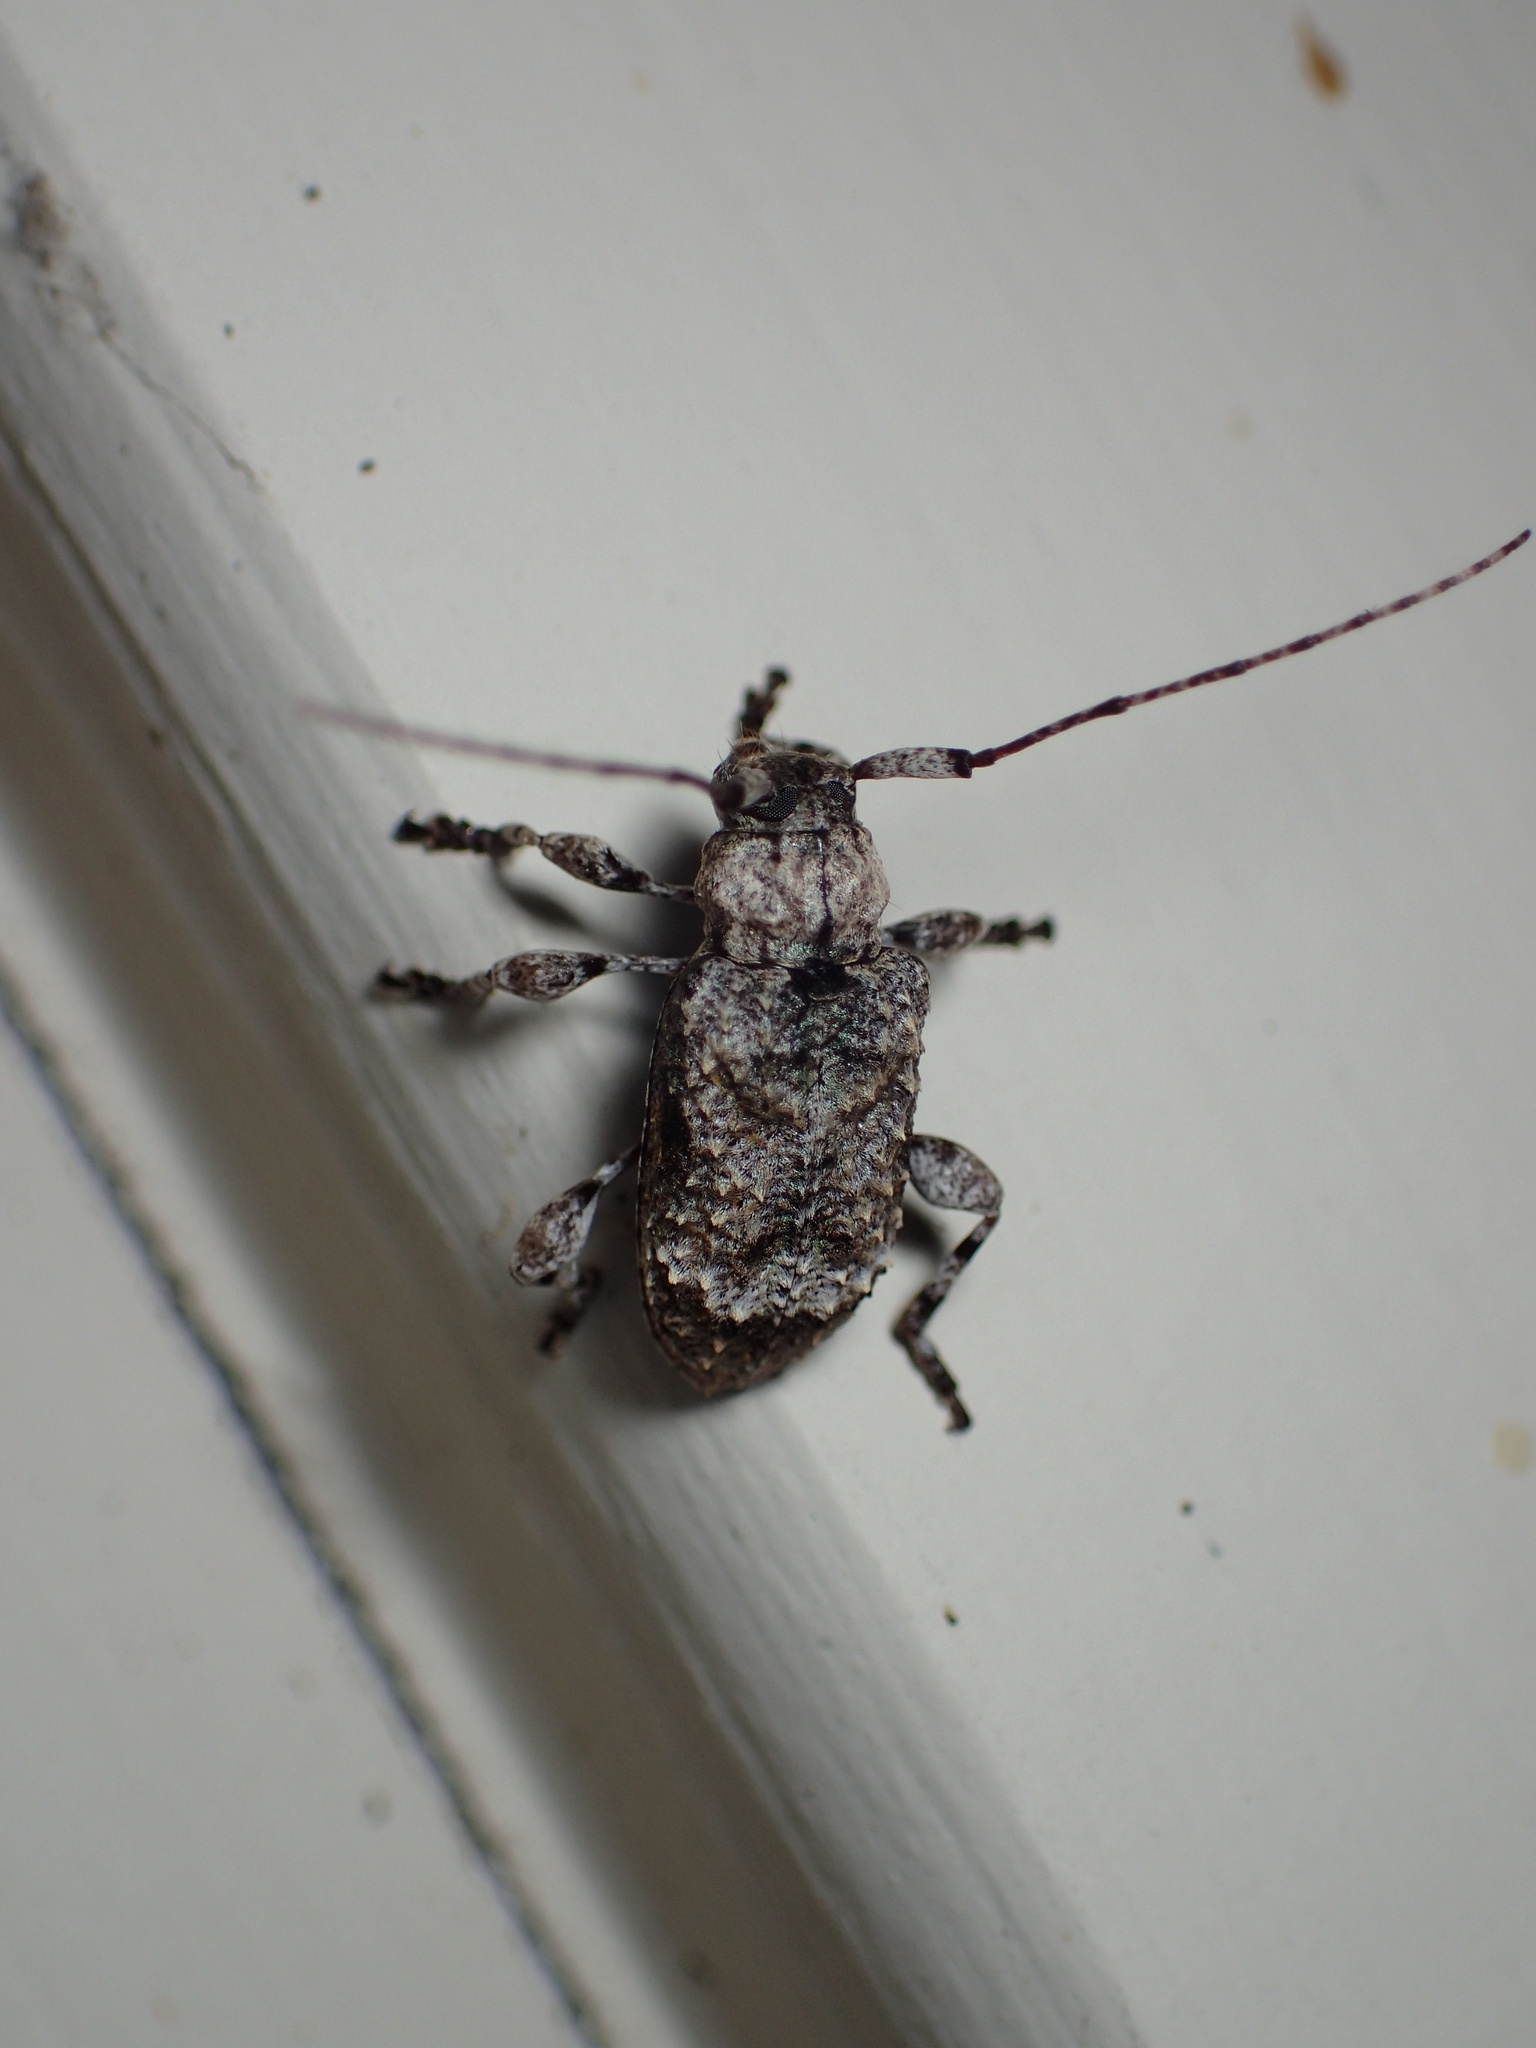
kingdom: Animalia
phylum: Arthropoda
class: Insecta
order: Coleoptera
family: Cerambycidae
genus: Leptostylus
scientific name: Leptostylus transversus
